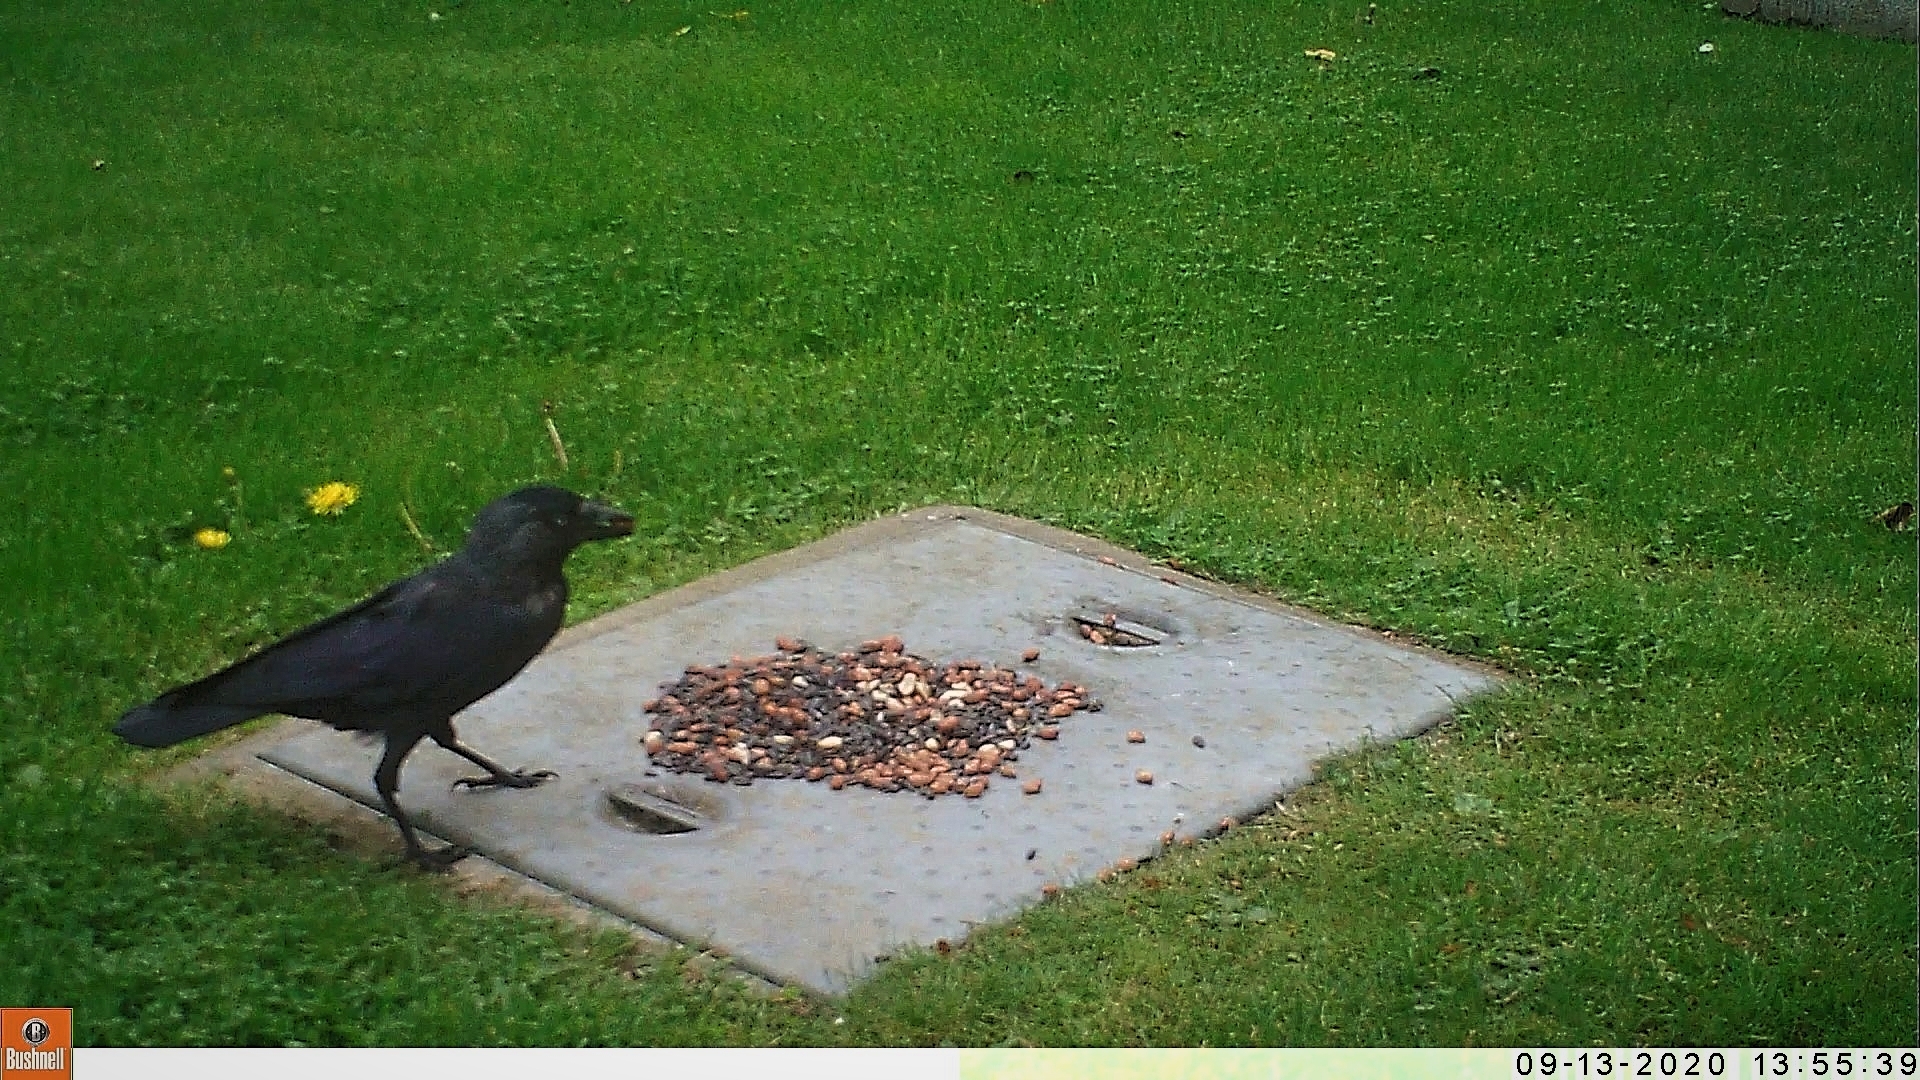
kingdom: Animalia
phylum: Chordata
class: Aves
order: Passeriformes
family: Corvidae
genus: Coloeus
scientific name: Coloeus monedula
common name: Western jackdaw
